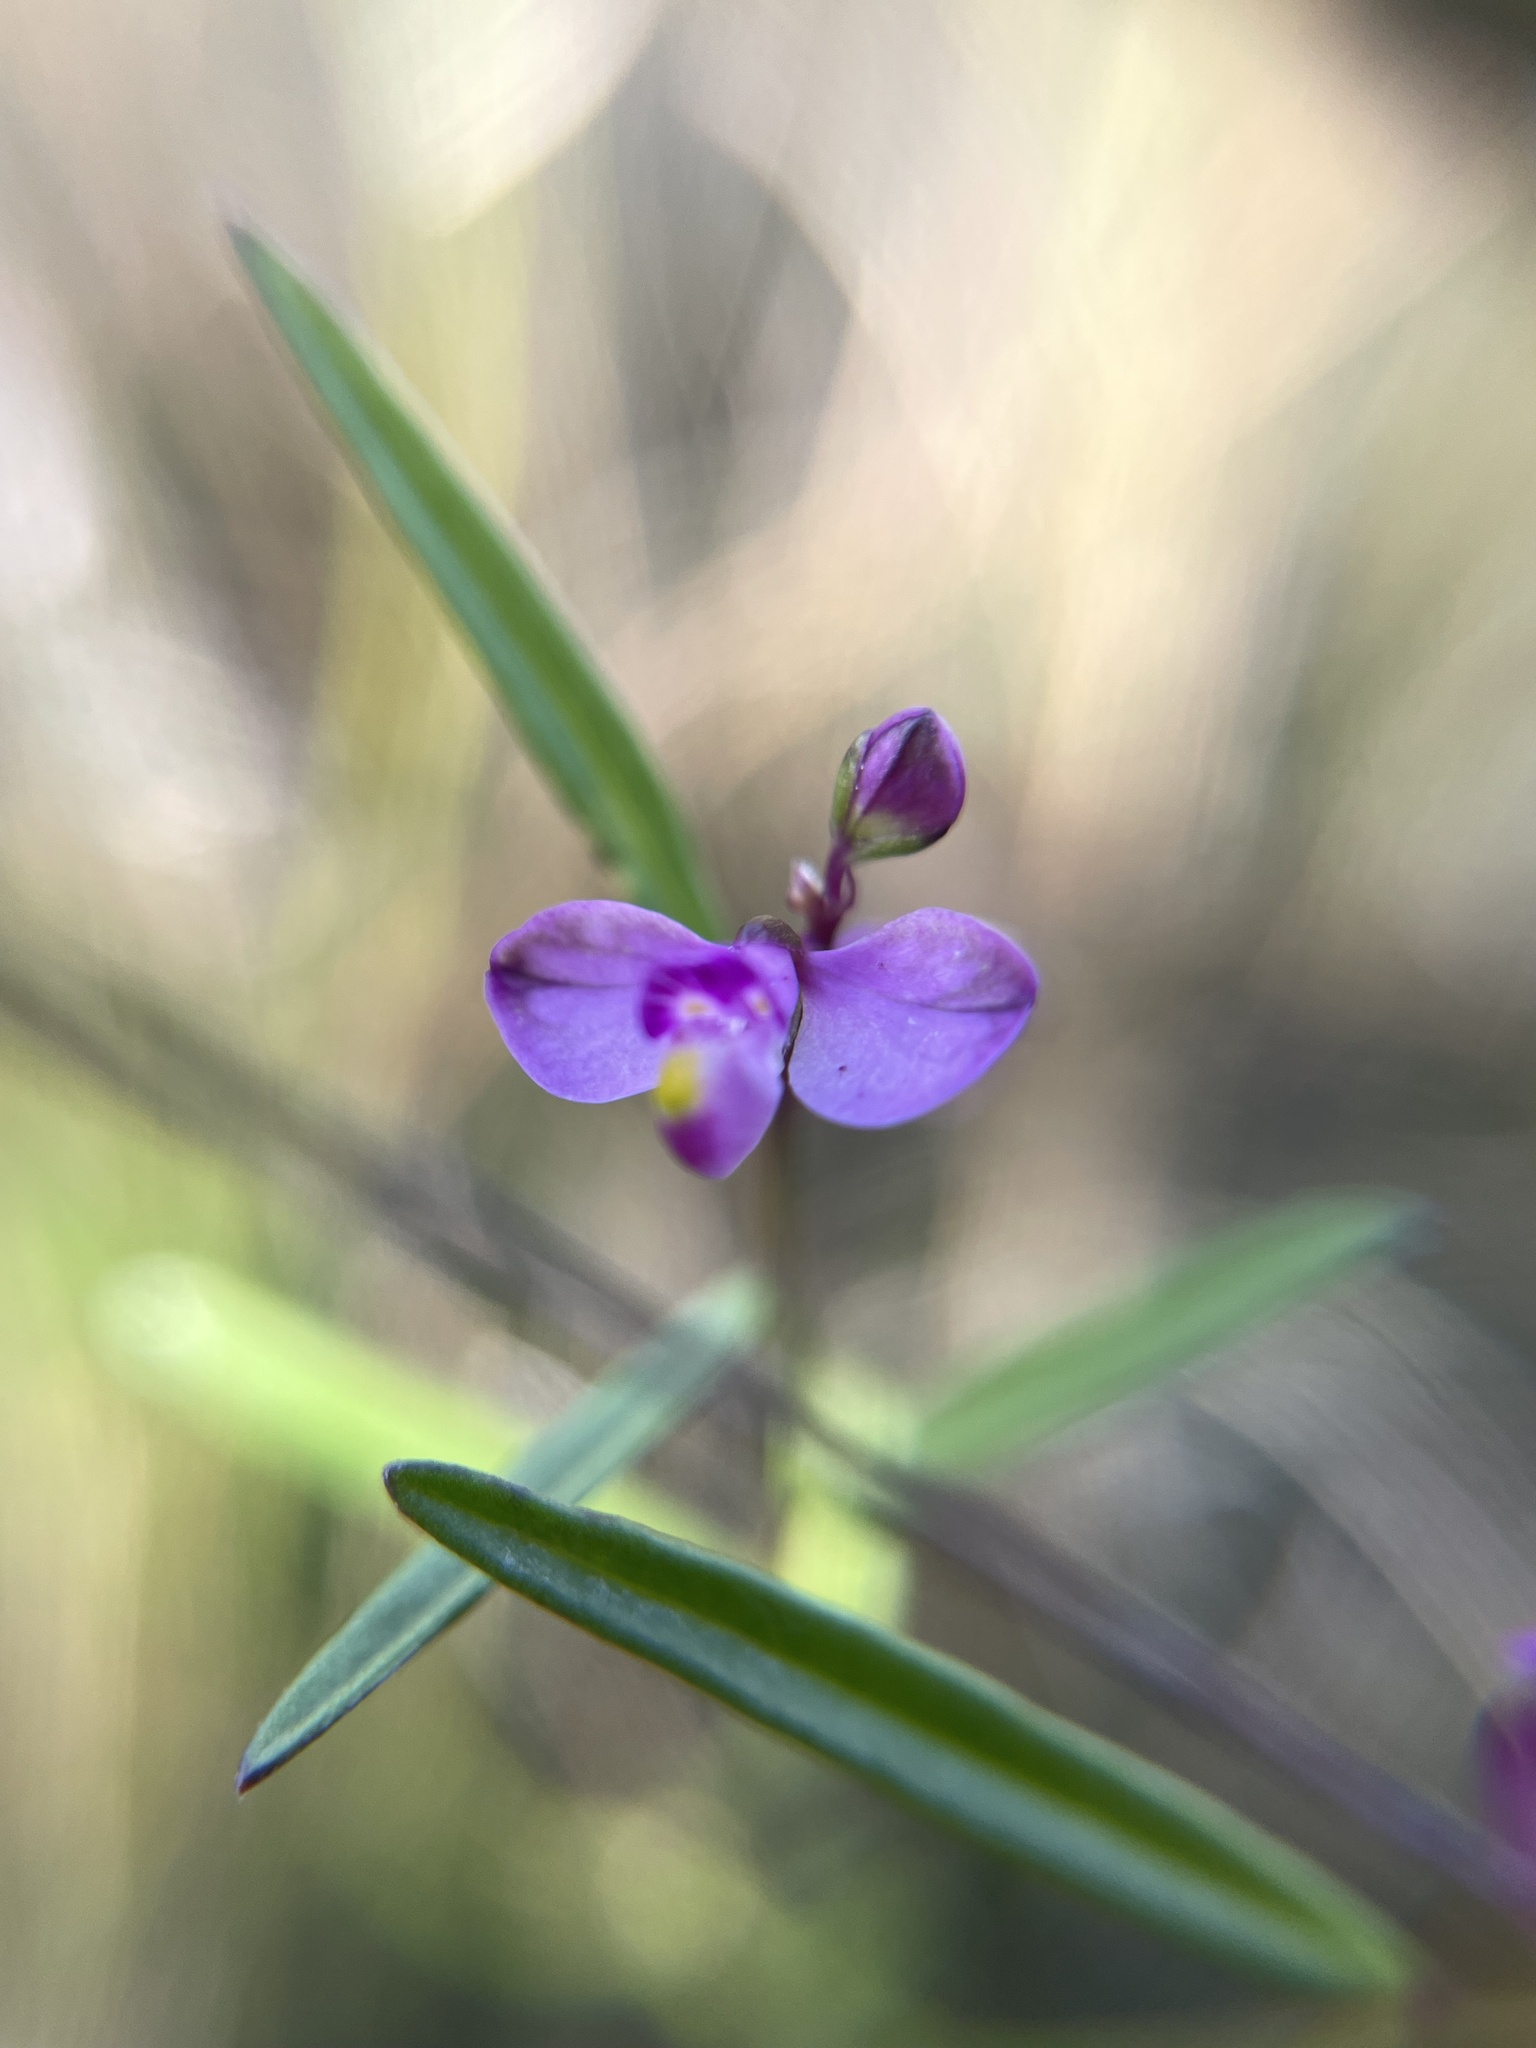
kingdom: Plantae
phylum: Tracheophyta
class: Magnoliopsida
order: Fabales
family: Polygalaceae
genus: Asemeia
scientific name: Asemeia grandiflora
